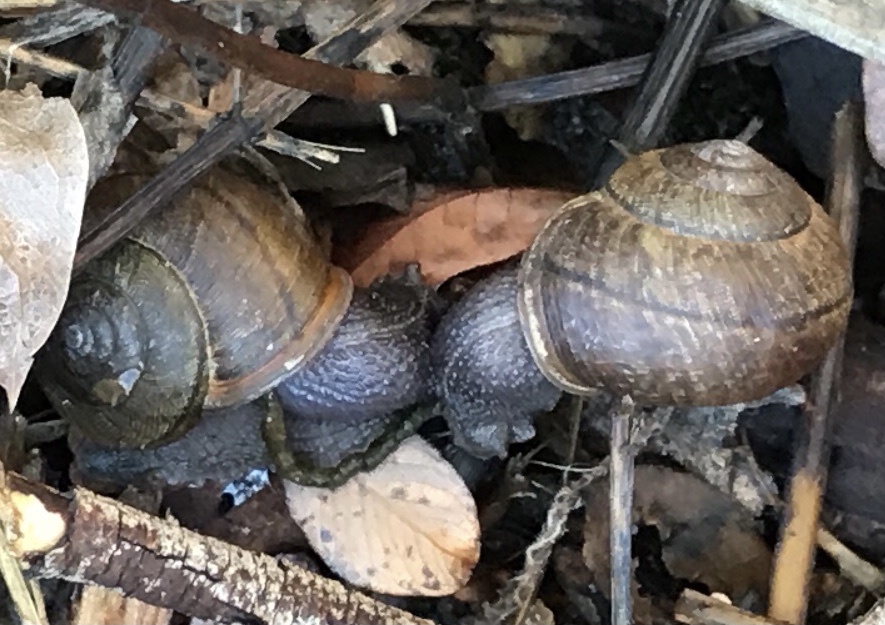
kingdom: Animalia
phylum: Mollusca
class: Gastropoda
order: Stylommatophora
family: Xanthonychidae
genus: Helminthoglypta
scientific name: Helminthoglypta nickliniana
